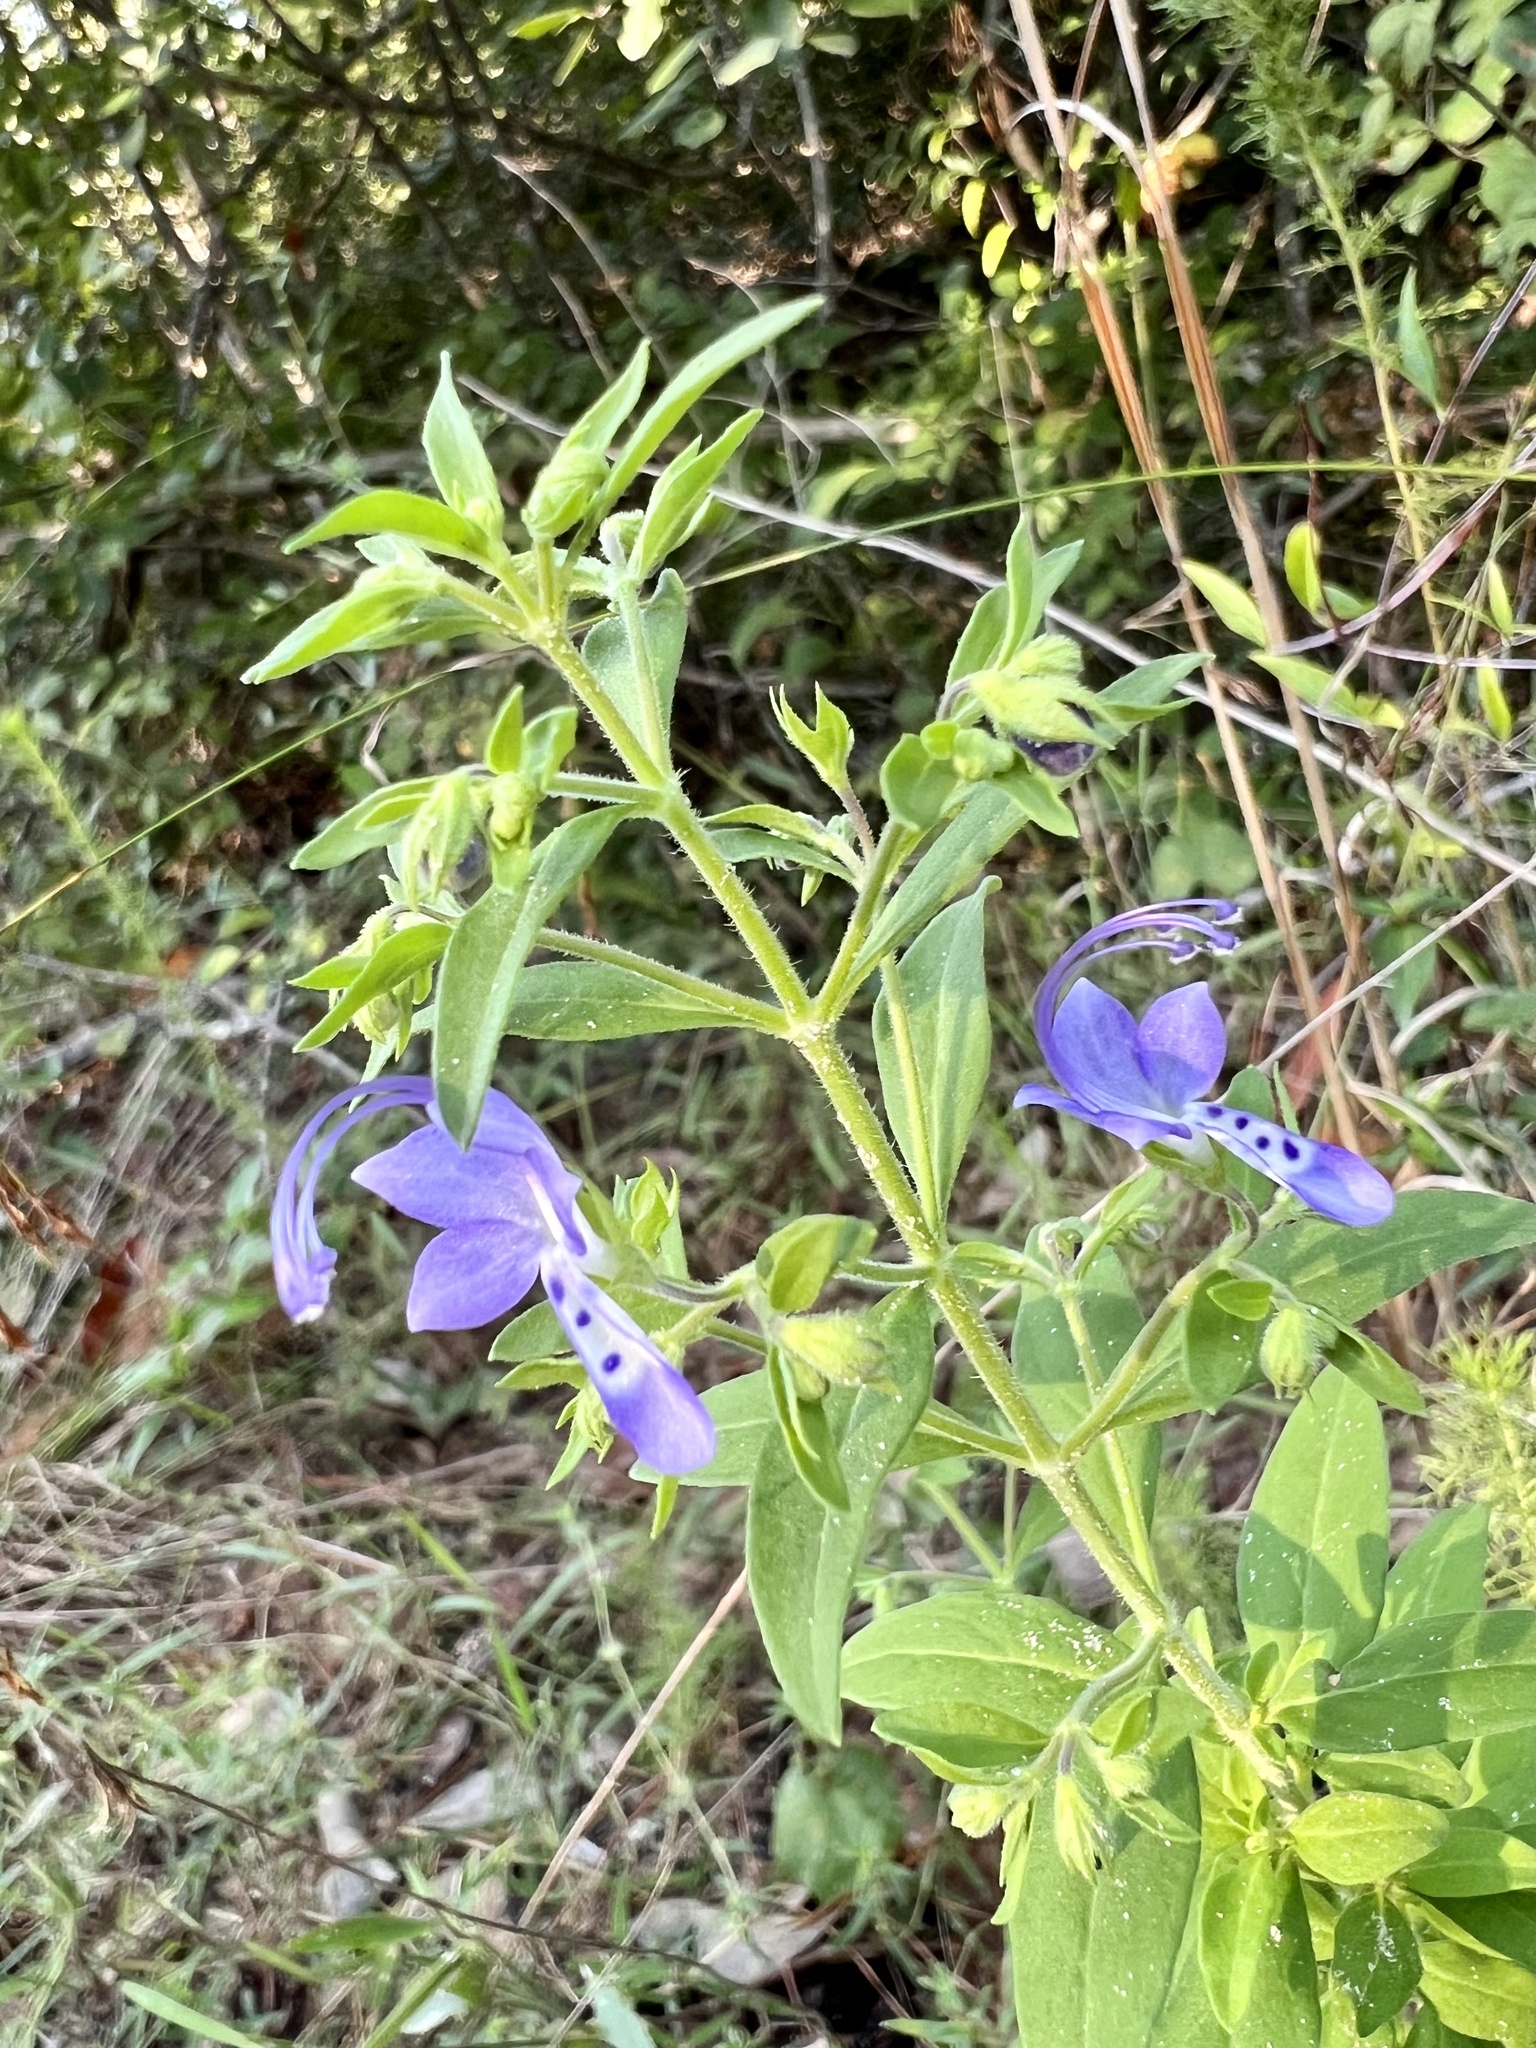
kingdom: Plantae
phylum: Tracheophyta
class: Magnoliopsida
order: Lamiales
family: Lamiaceae
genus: Trichostema
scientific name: Trichostema dichotomum
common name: Bastard pennyroyal
